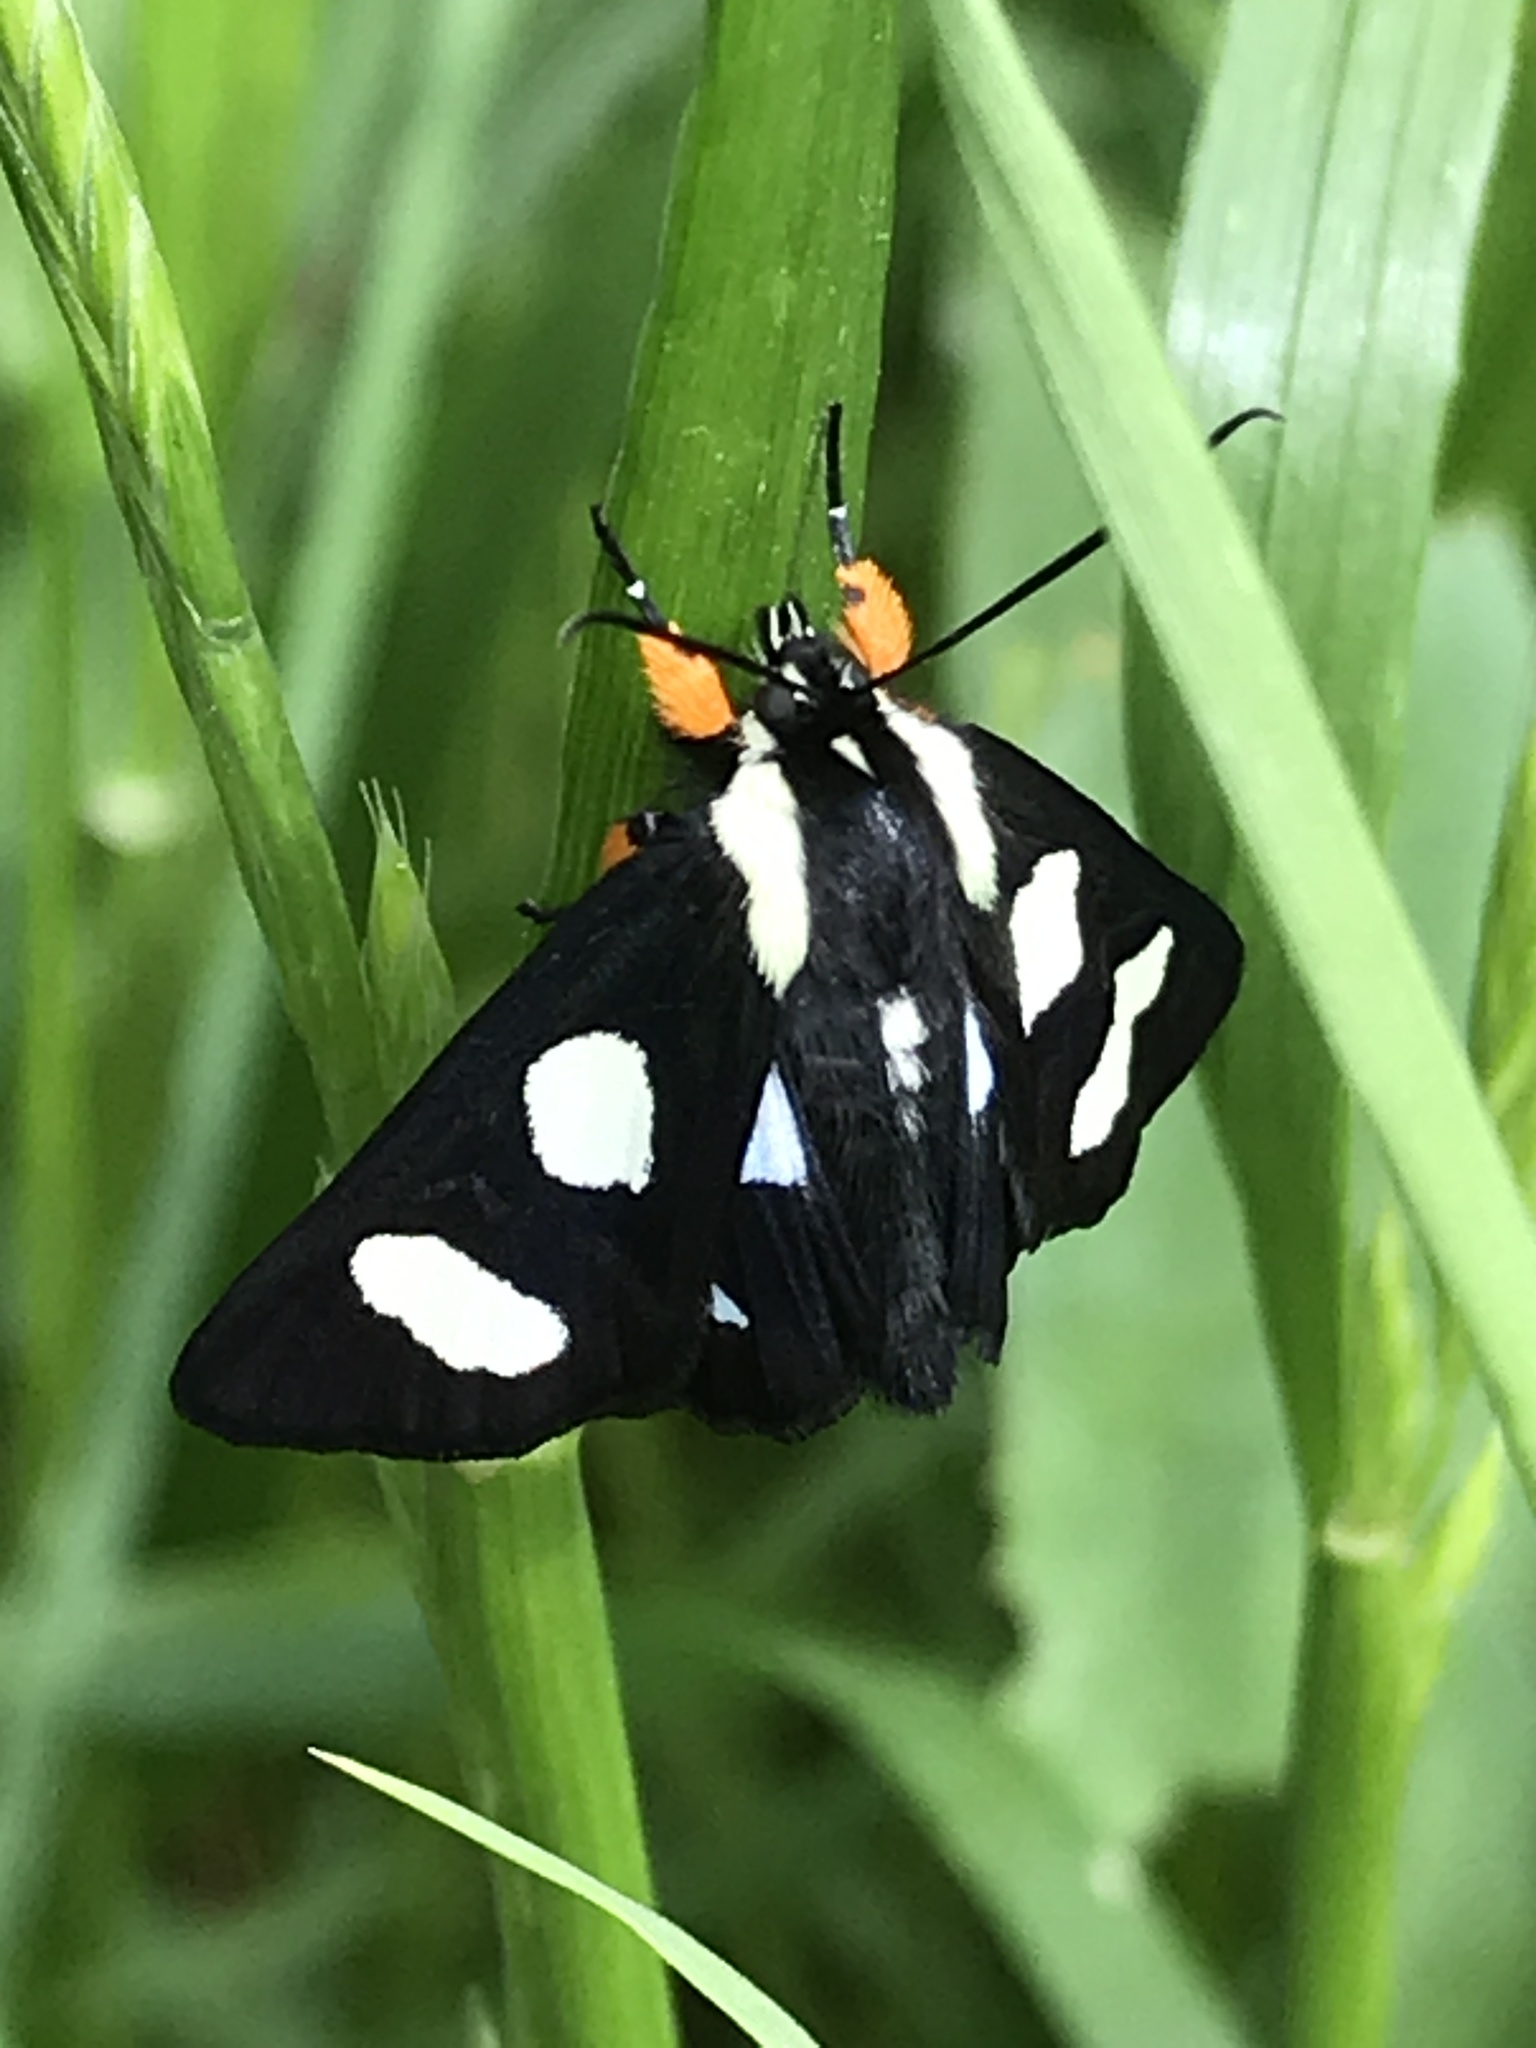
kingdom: Animalia
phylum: Arthropoda
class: Insecta
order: Lepidoptera
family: Noctuidae
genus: Alypia
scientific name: Alypia octomaculata
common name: Eight-spotted forester
